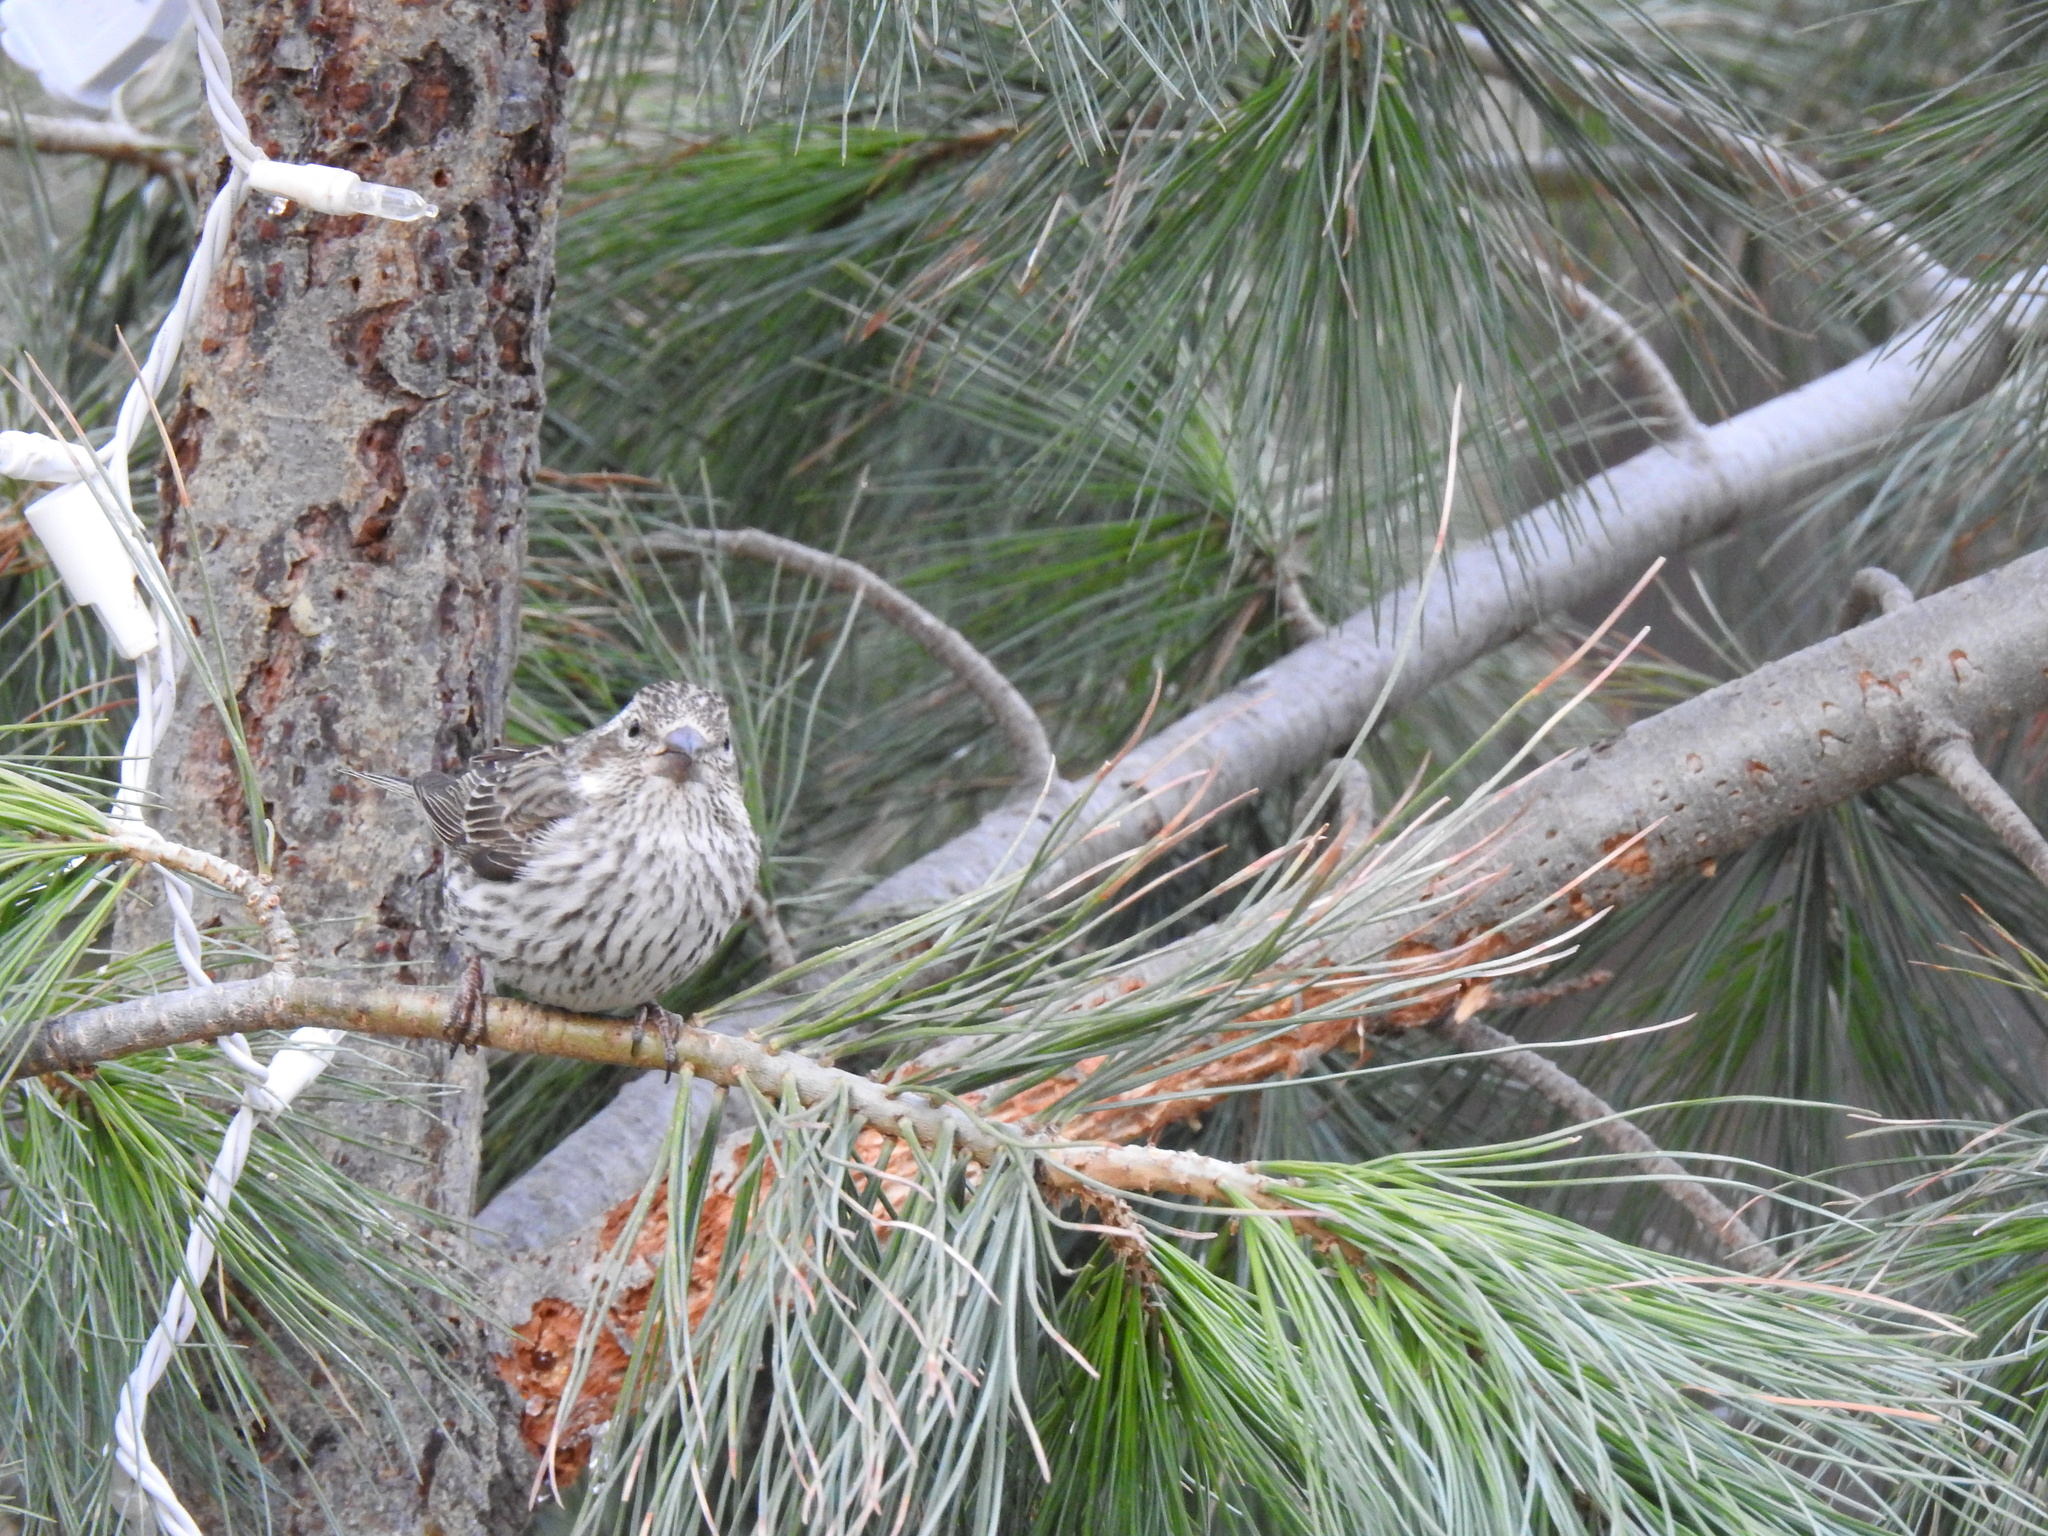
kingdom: Animalia
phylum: Chordata
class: Aves
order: Passeriformes
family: Fringillidae
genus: Haemorhous
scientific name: Haemorhous cassinii
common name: Cassin's finch
